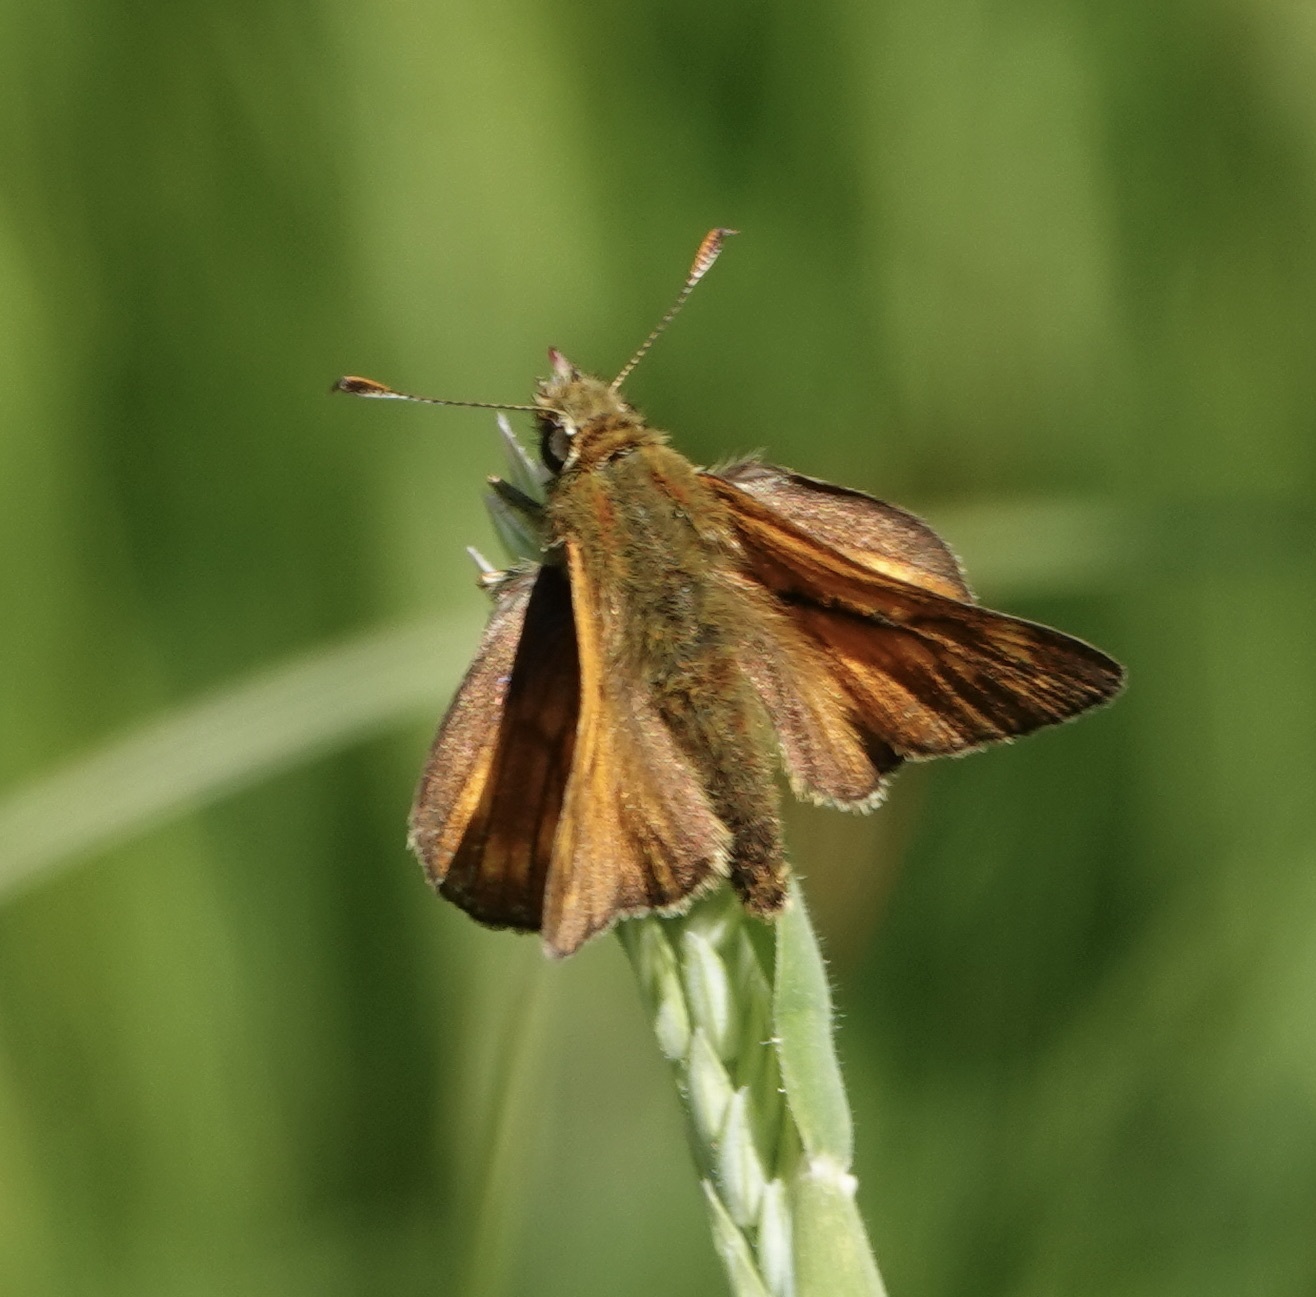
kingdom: Animalia
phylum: Arthropoda
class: Insecta
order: Lepidoptera
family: Hesperiidae
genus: Ochlodes
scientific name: Ochlodes venata
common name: Large skipper
